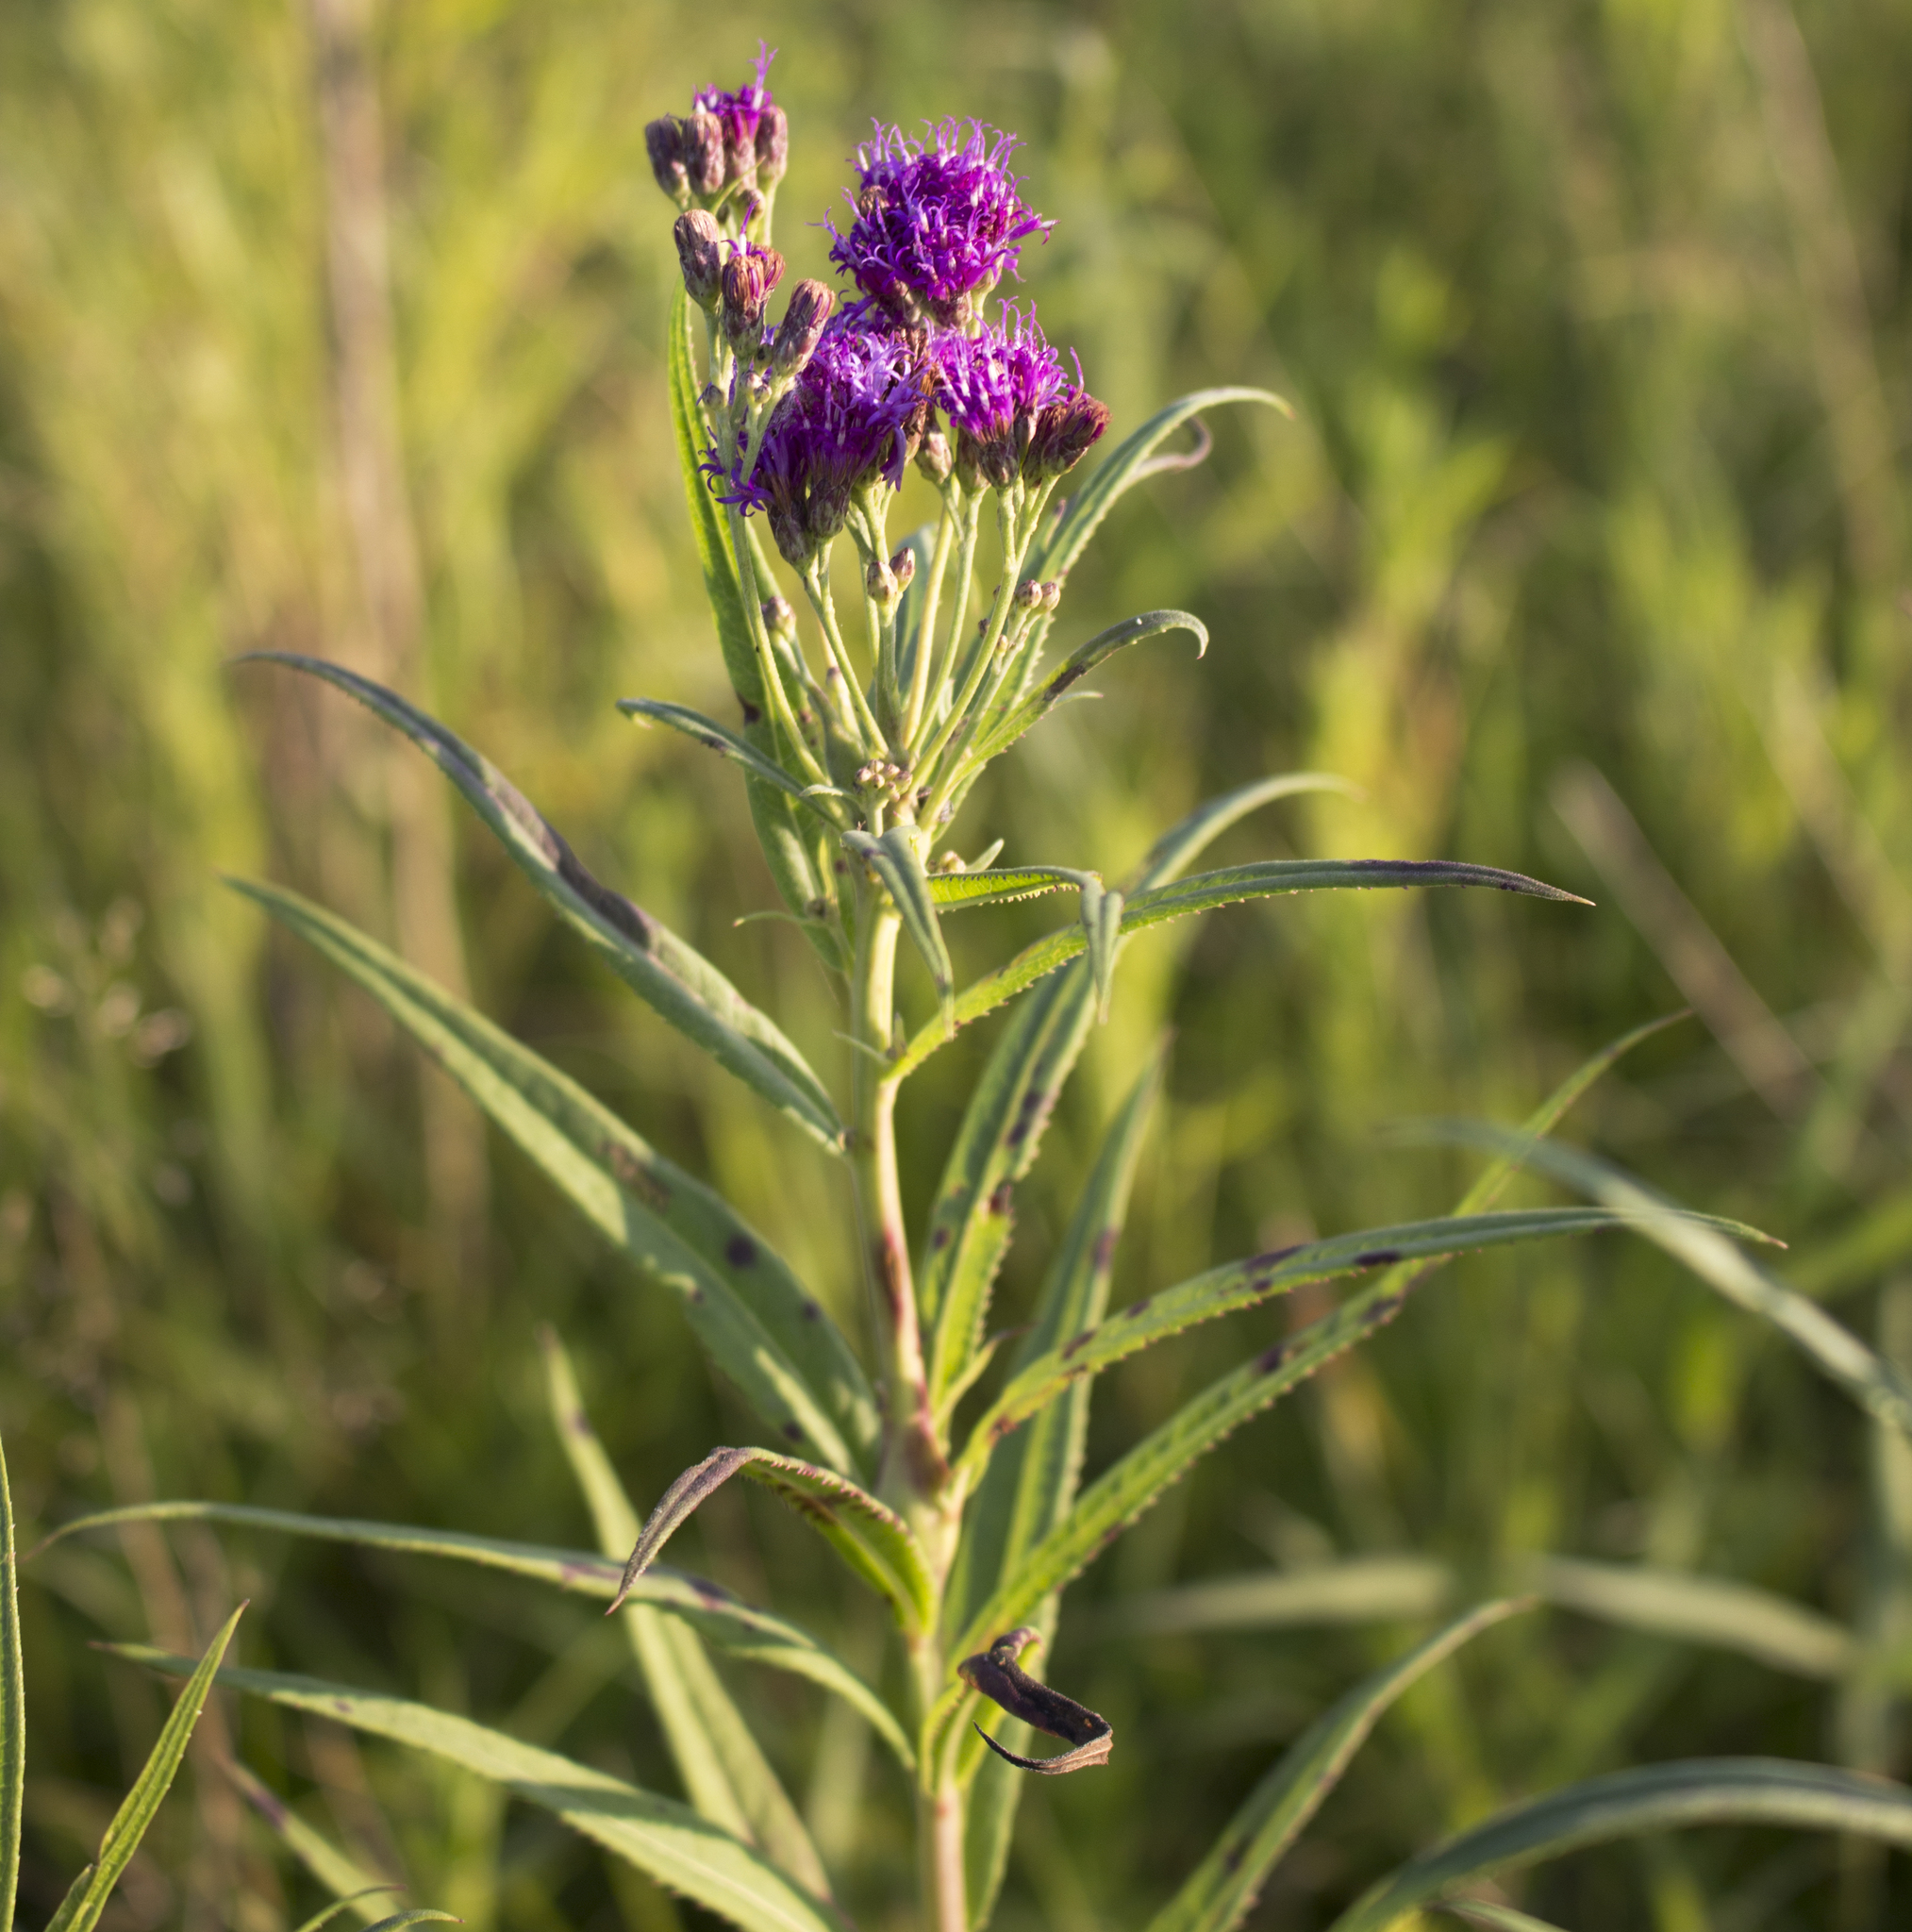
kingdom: Plantae
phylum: Tracheophyta
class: Magnoliopsida
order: Asterales
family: Asteraceae
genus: Vernonia
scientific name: Vernonia fasciculata
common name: Fascicled ironweed
